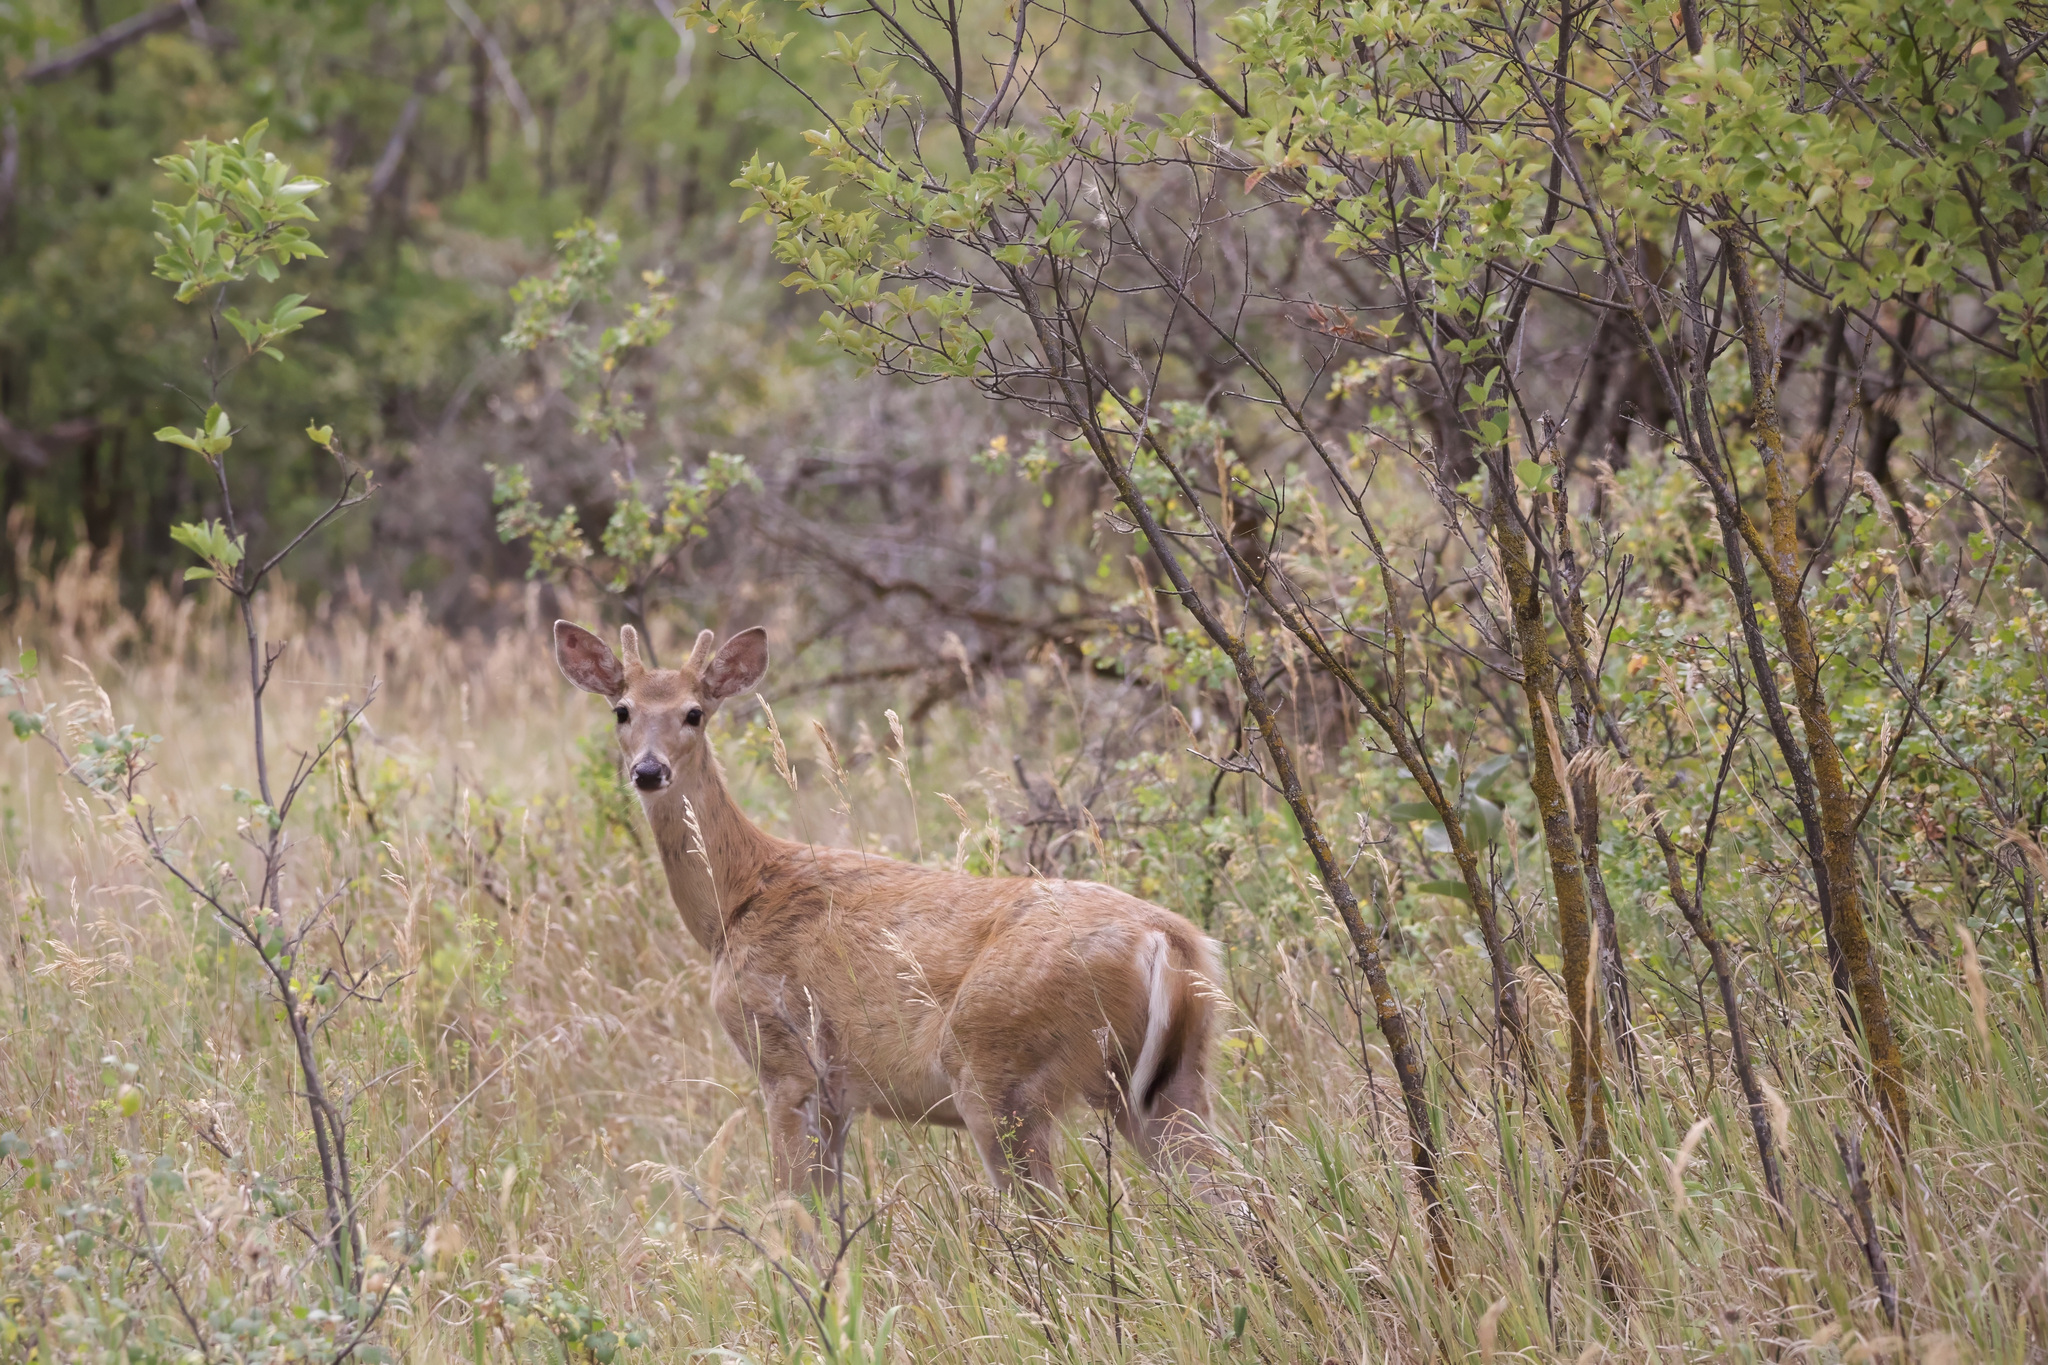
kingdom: Animalia
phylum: Chordata
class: Mammalia
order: Artiodactyla
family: Cervidae
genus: Odocoileus
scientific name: Odocoileus virginianus
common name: White-tailed deer
